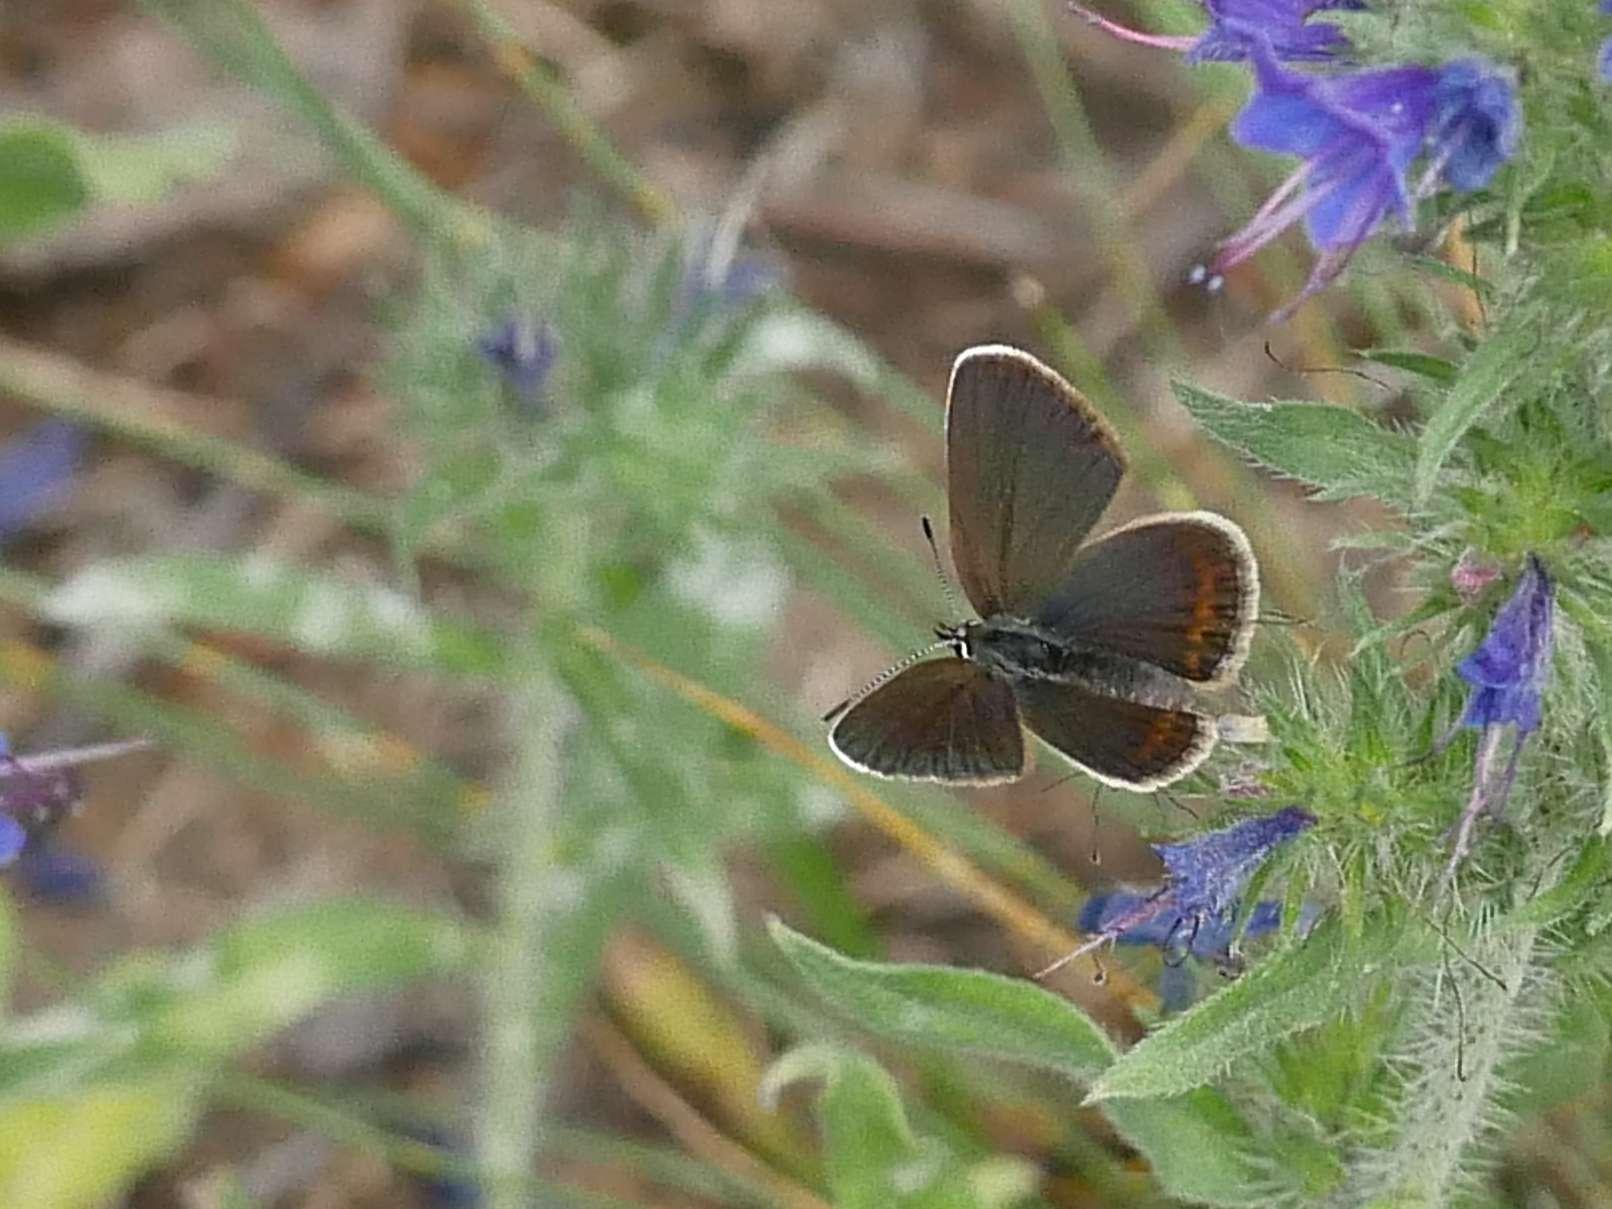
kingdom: Animalia
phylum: Arthropoda
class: Insecta
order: Lepidoptera
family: Lycaenidae
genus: Plebejus
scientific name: Plebejus argus
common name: Silver-studded blue
